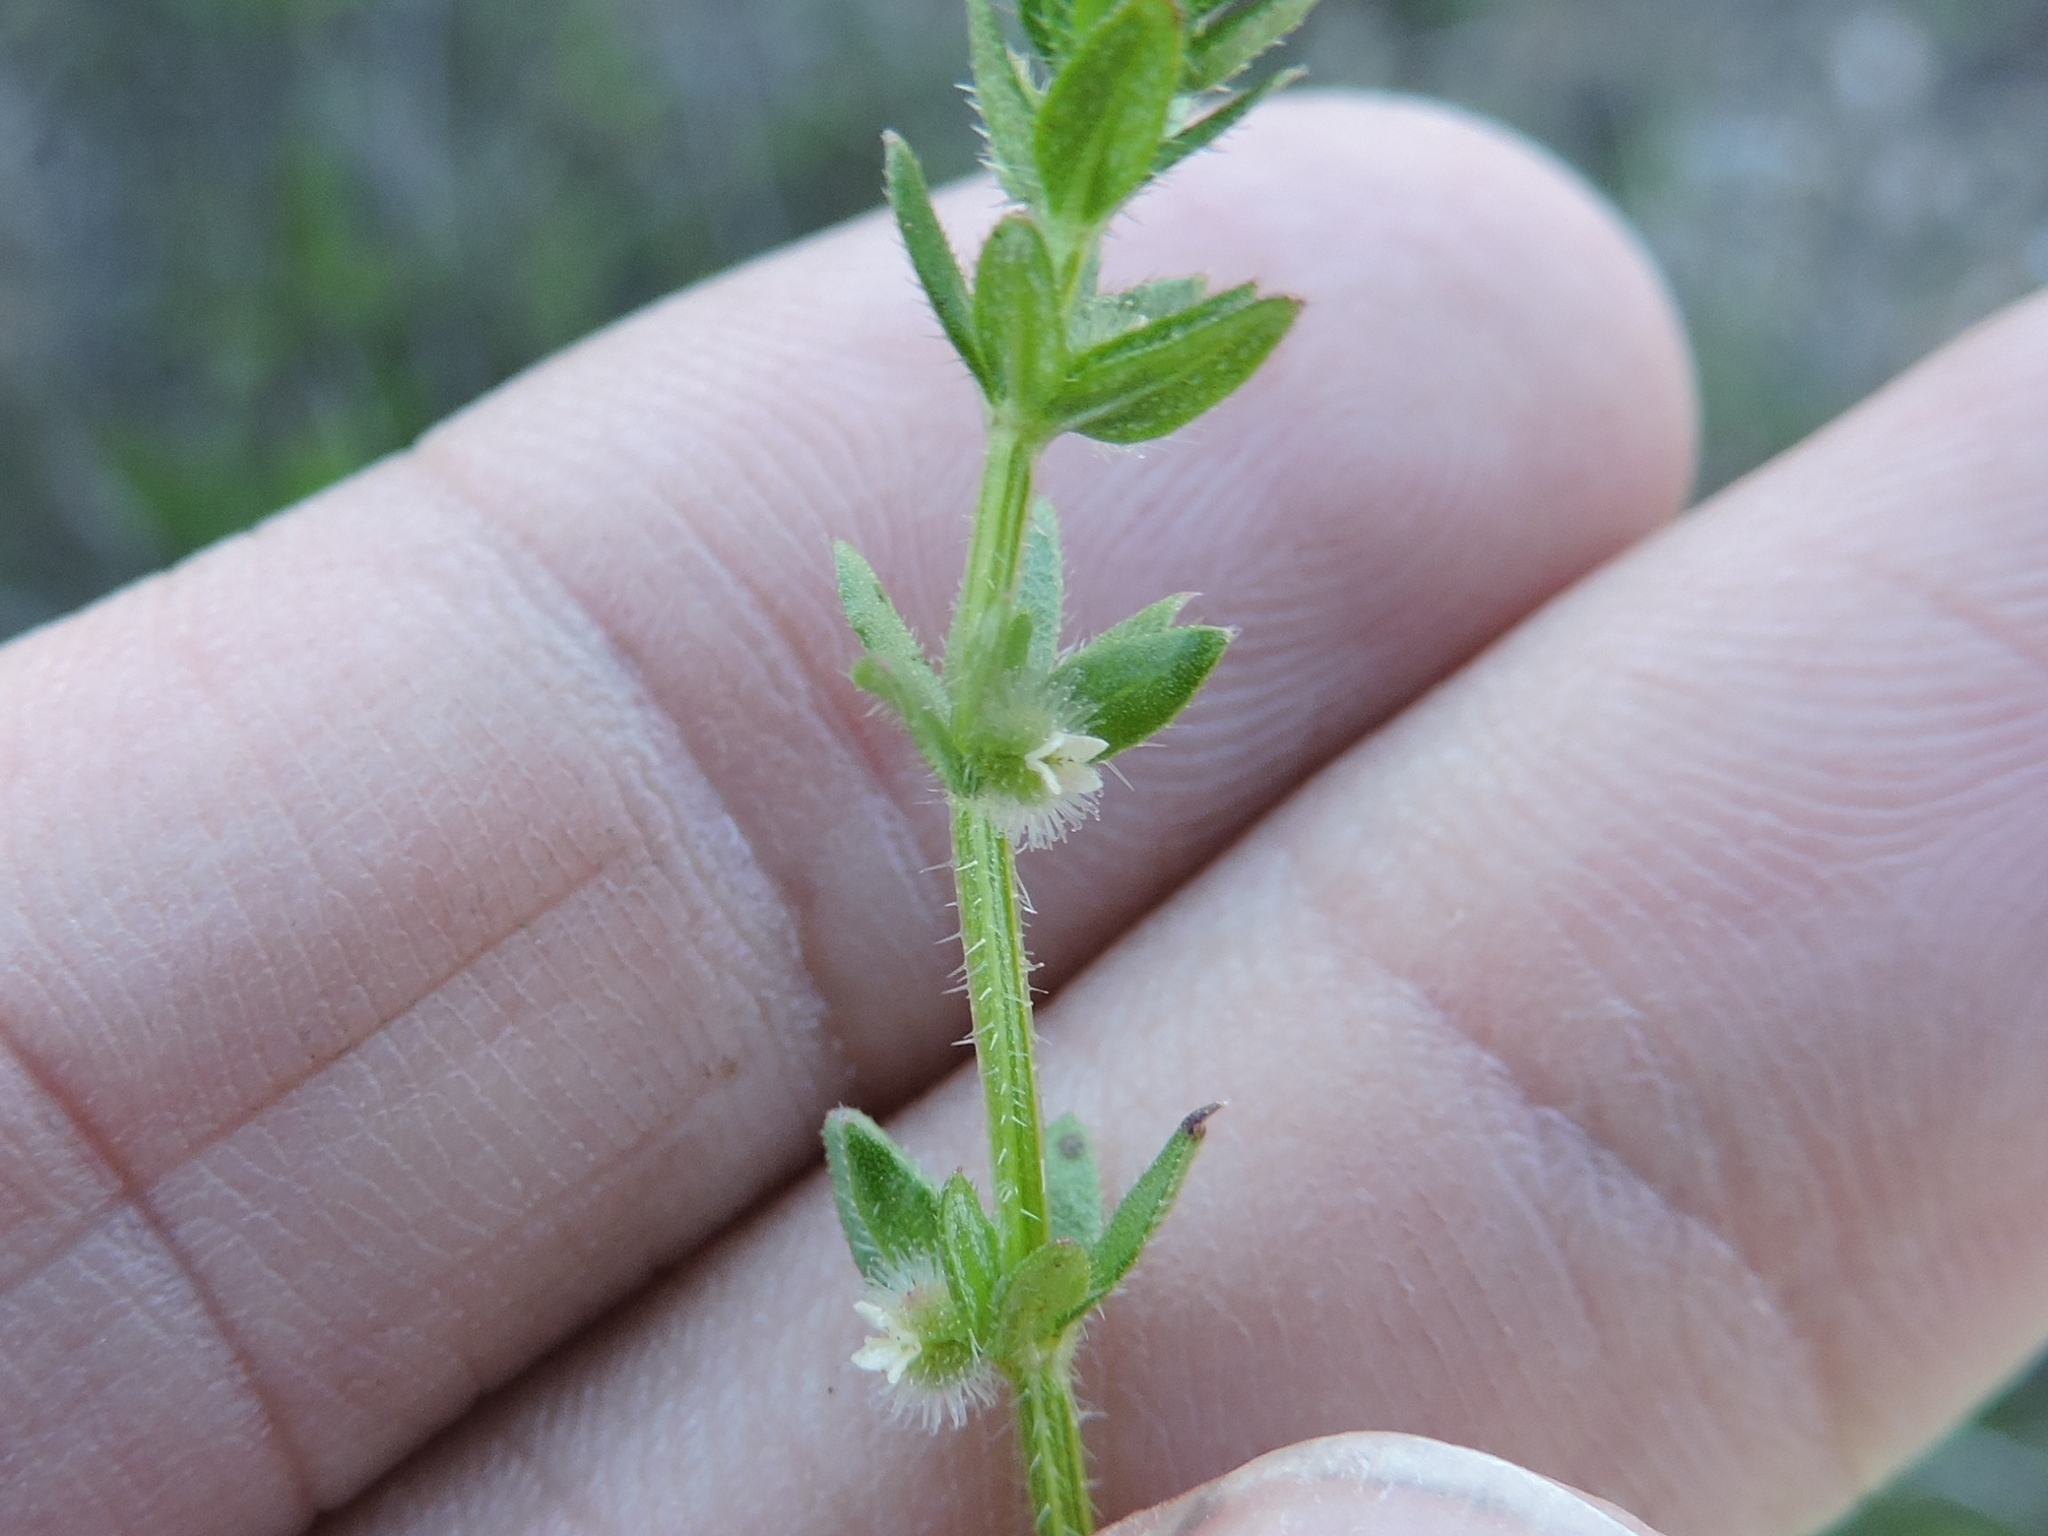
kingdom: Plantae
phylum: Tracheophyta
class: Magnoliopsida
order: Gentianales
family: Rubiaceae
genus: Galium
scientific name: Galium virgatum
